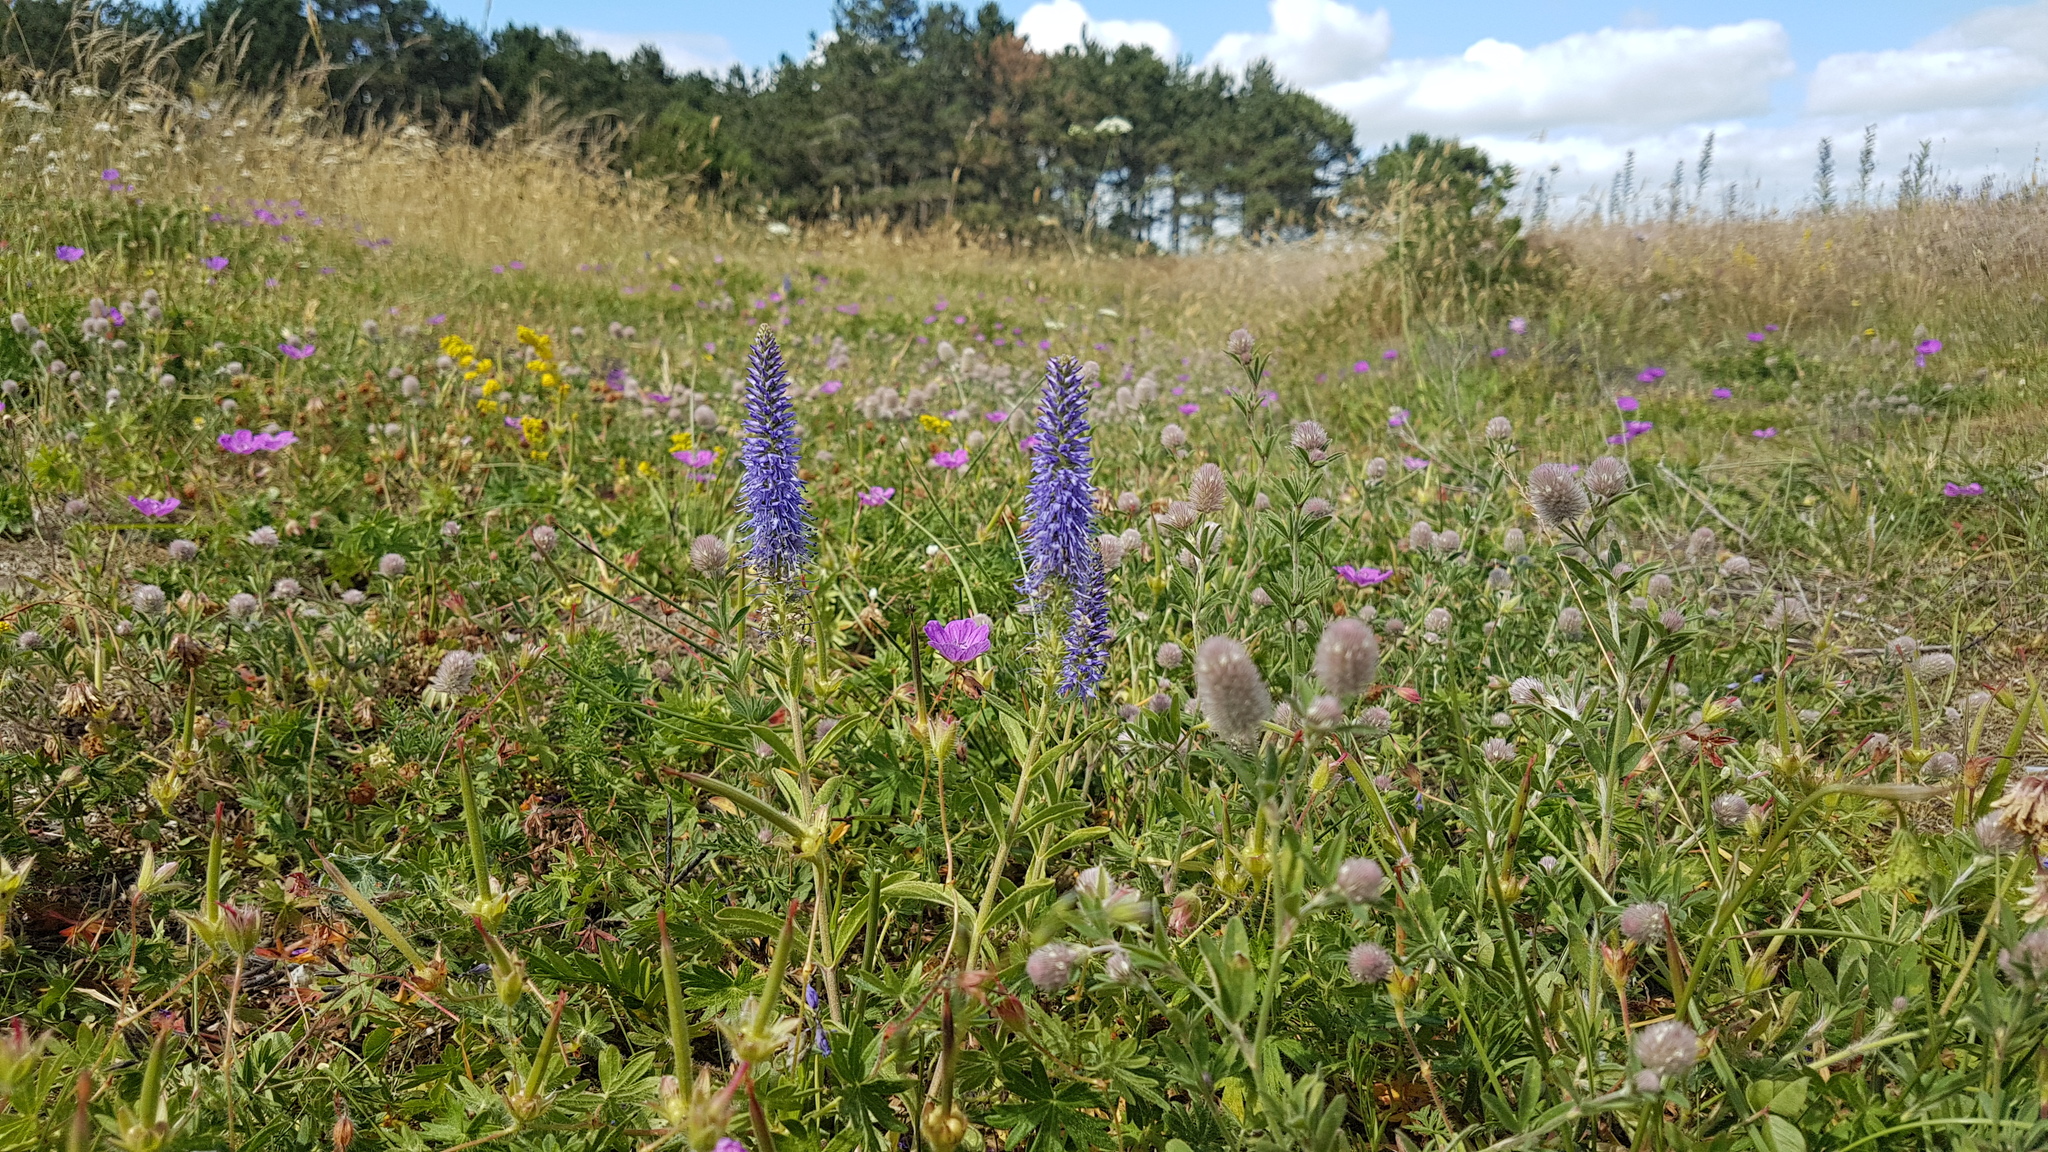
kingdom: Plantae
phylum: Tracheophyta
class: Magnoliopsida
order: Lamiales
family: Plantaginaceae
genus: Veronica
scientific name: Veronica spicata
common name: Spiked speedwell
